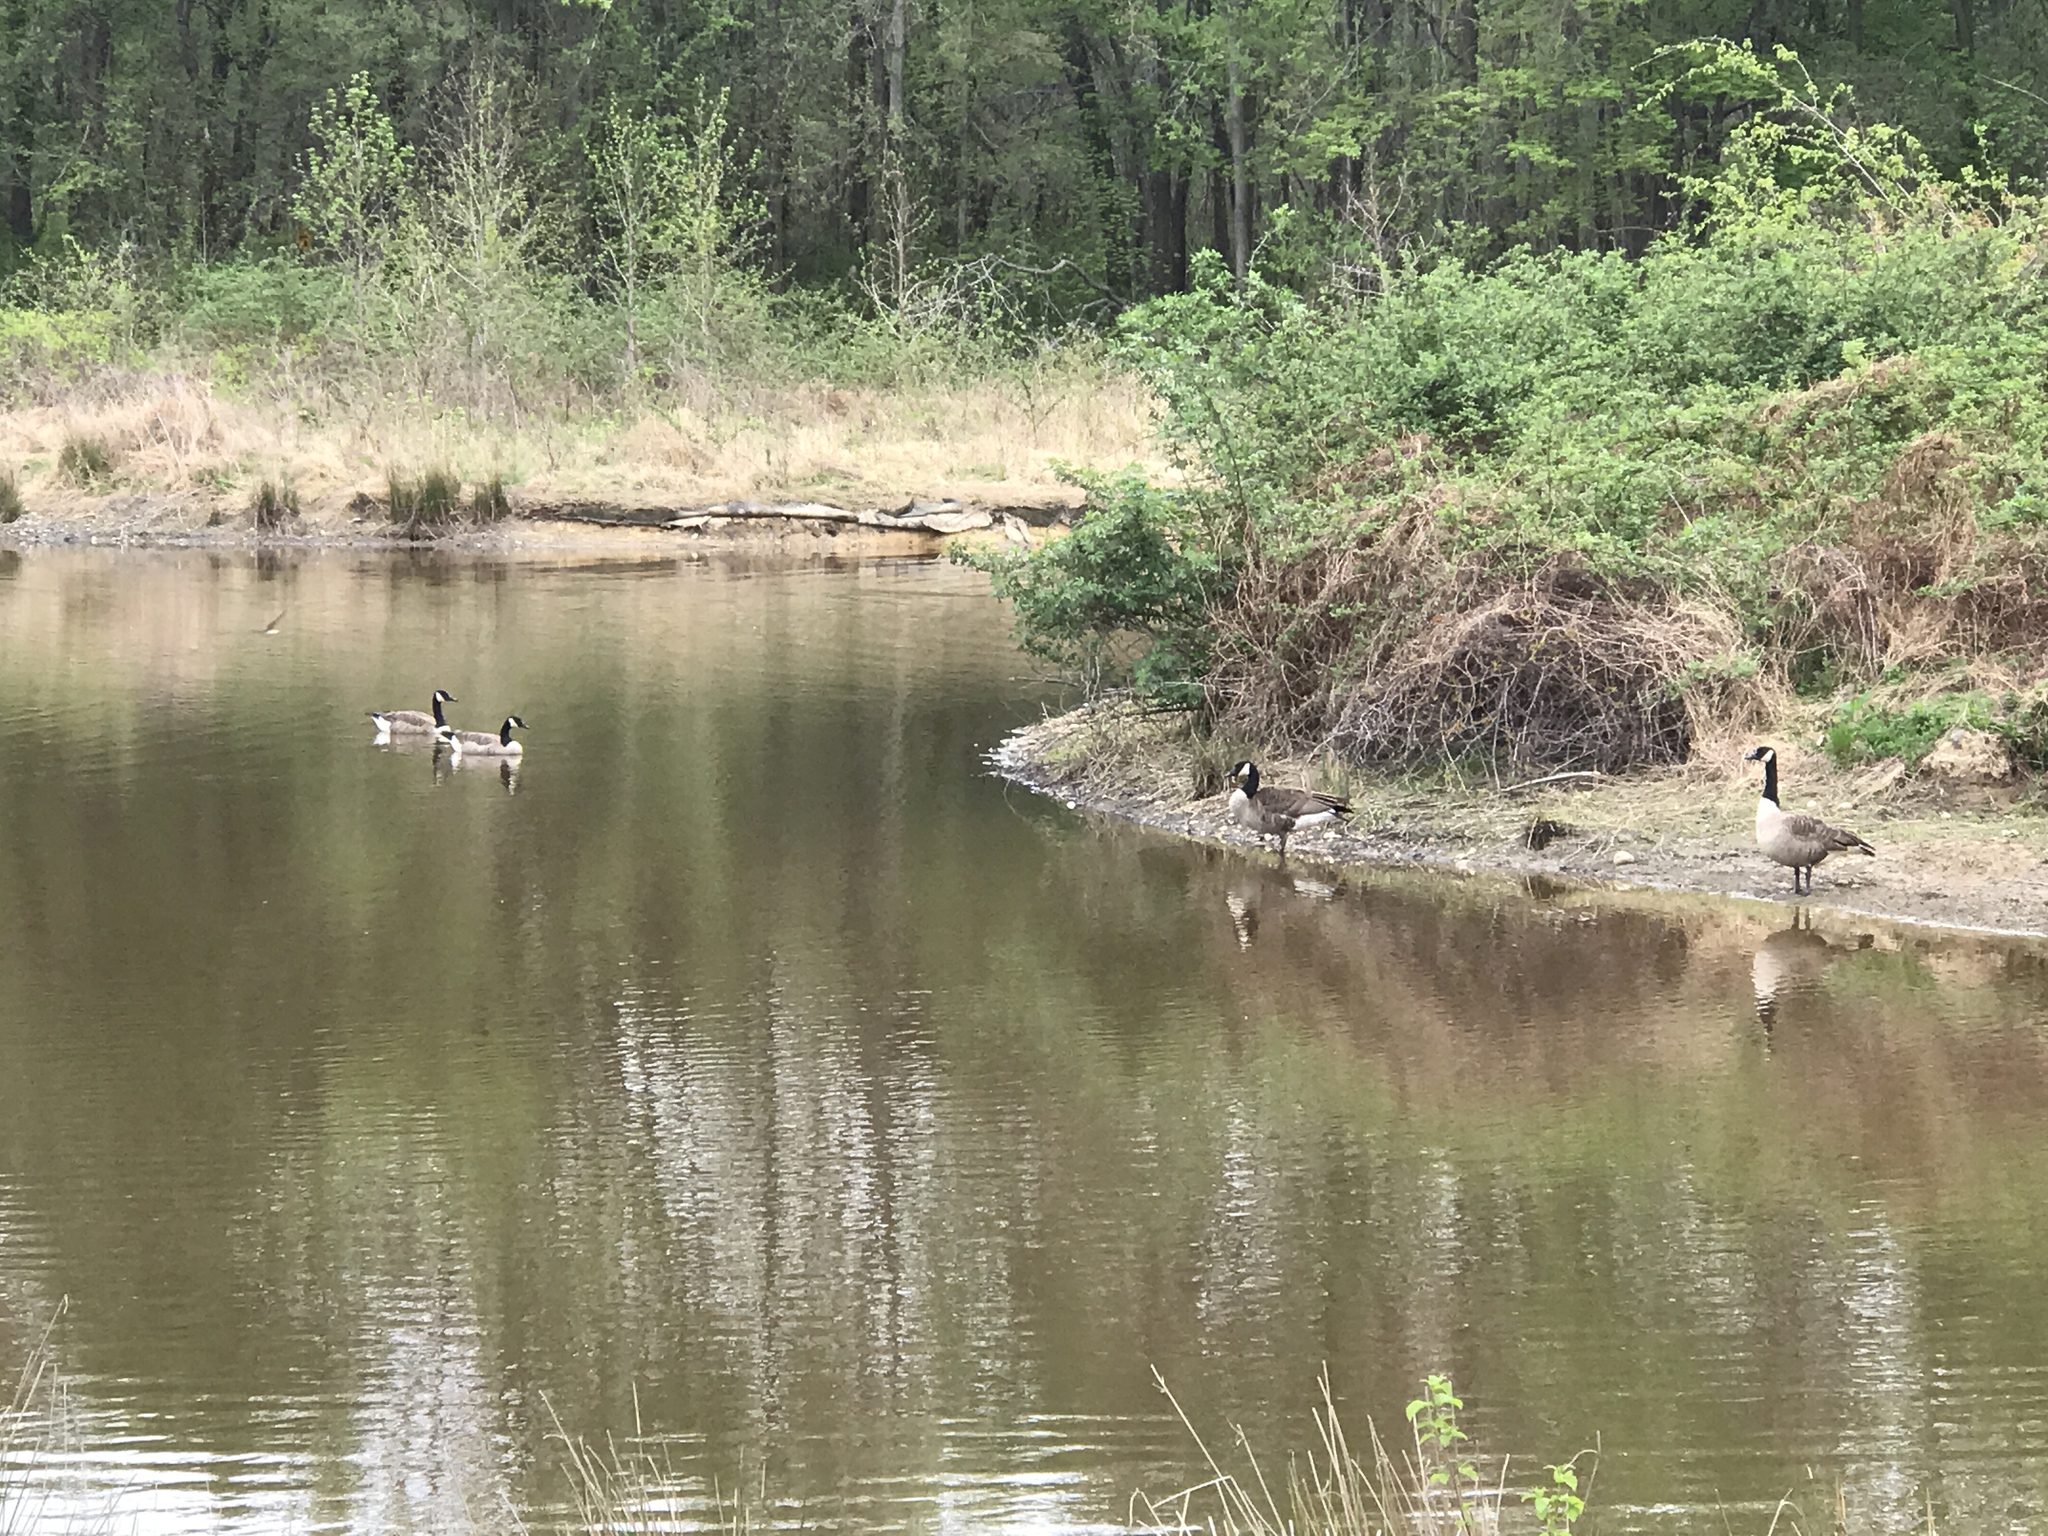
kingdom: Animalia
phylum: Chordata
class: Aves
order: Anseriformes
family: Anatidae
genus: Branta
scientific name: Branta canadensis
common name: Canada goose
